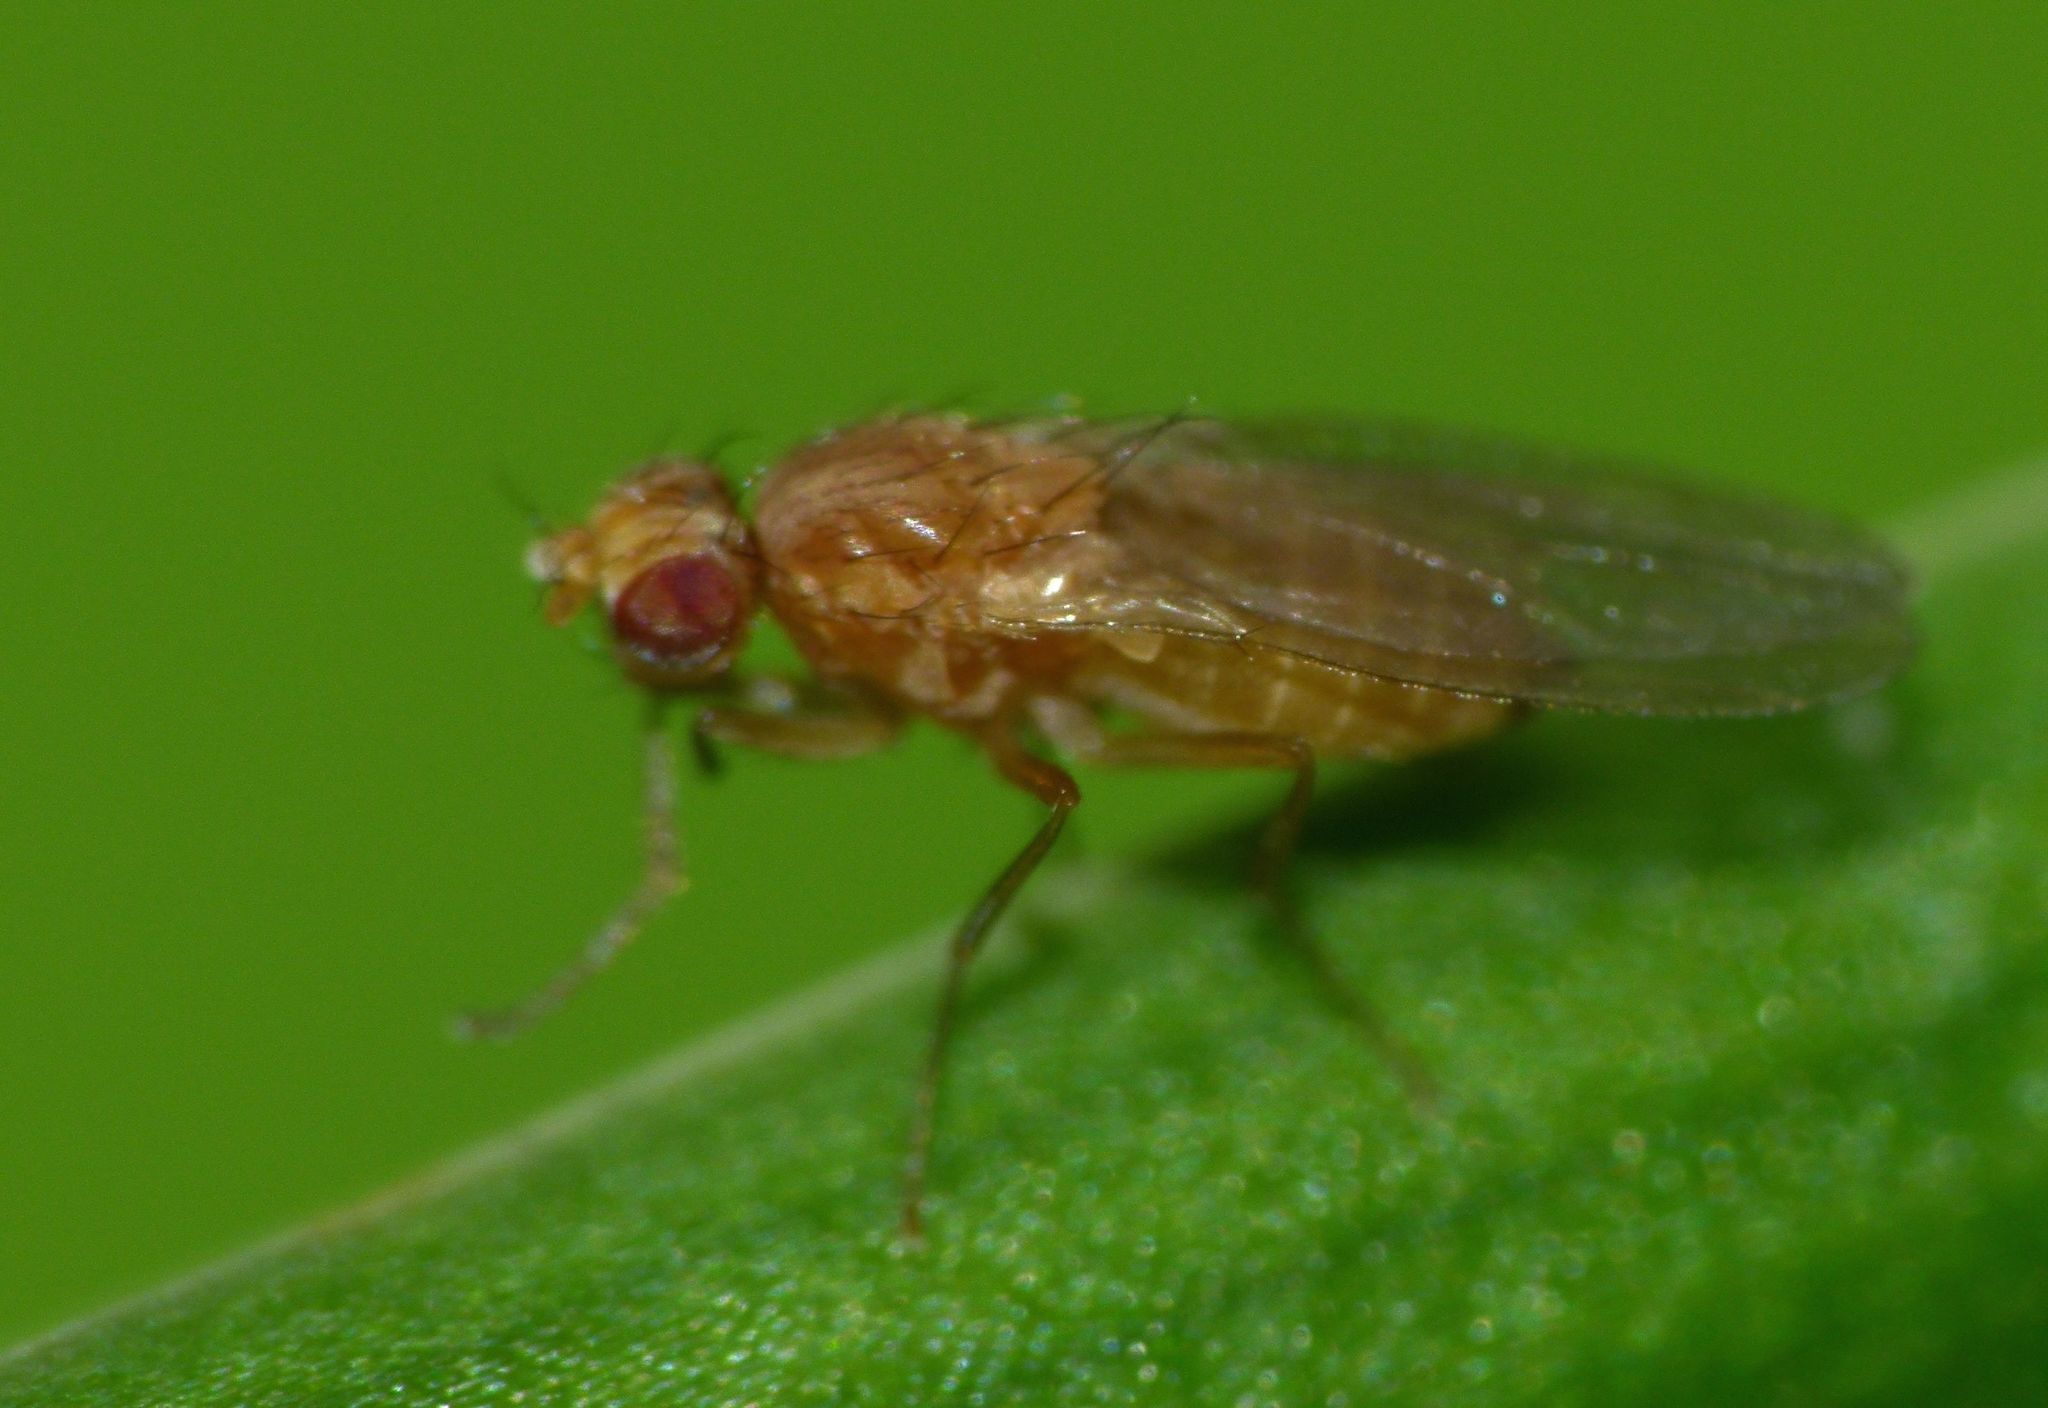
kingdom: Animalia
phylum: Arthropoda
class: Insecta
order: Diptera
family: Drosophilidae
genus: Scaptomyza
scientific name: Scaptomyza flava
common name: Fruit fly
